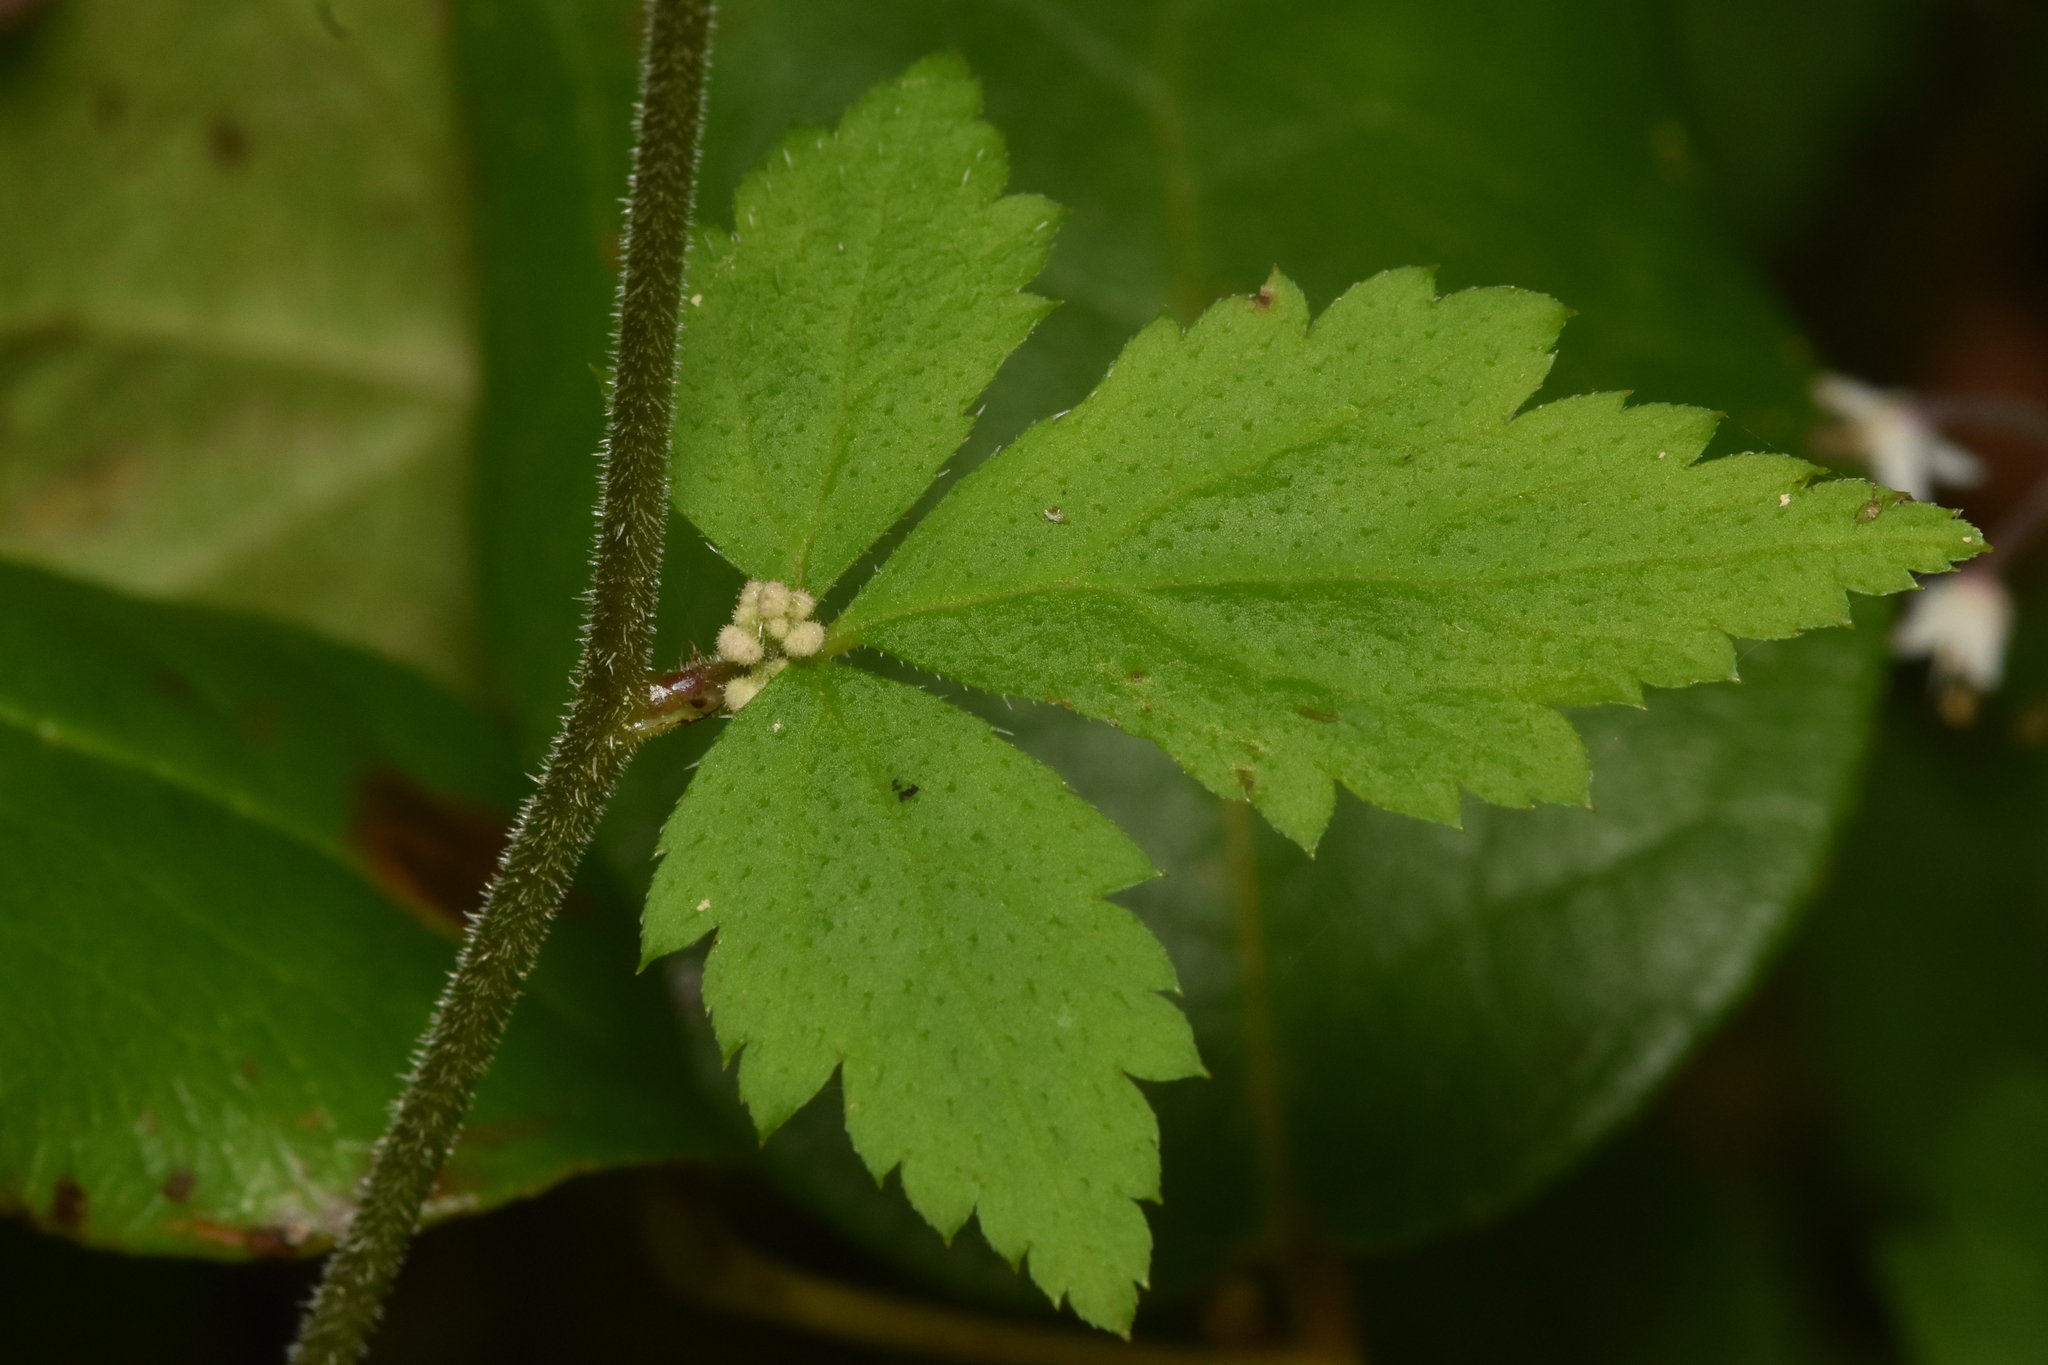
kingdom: Plantae
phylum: Tracheophyta
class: Magnoliopsida
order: Saxifragales
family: Saxifragaceae
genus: Tiarella
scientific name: Tiarella trifoliata
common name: Sugar-scoop
